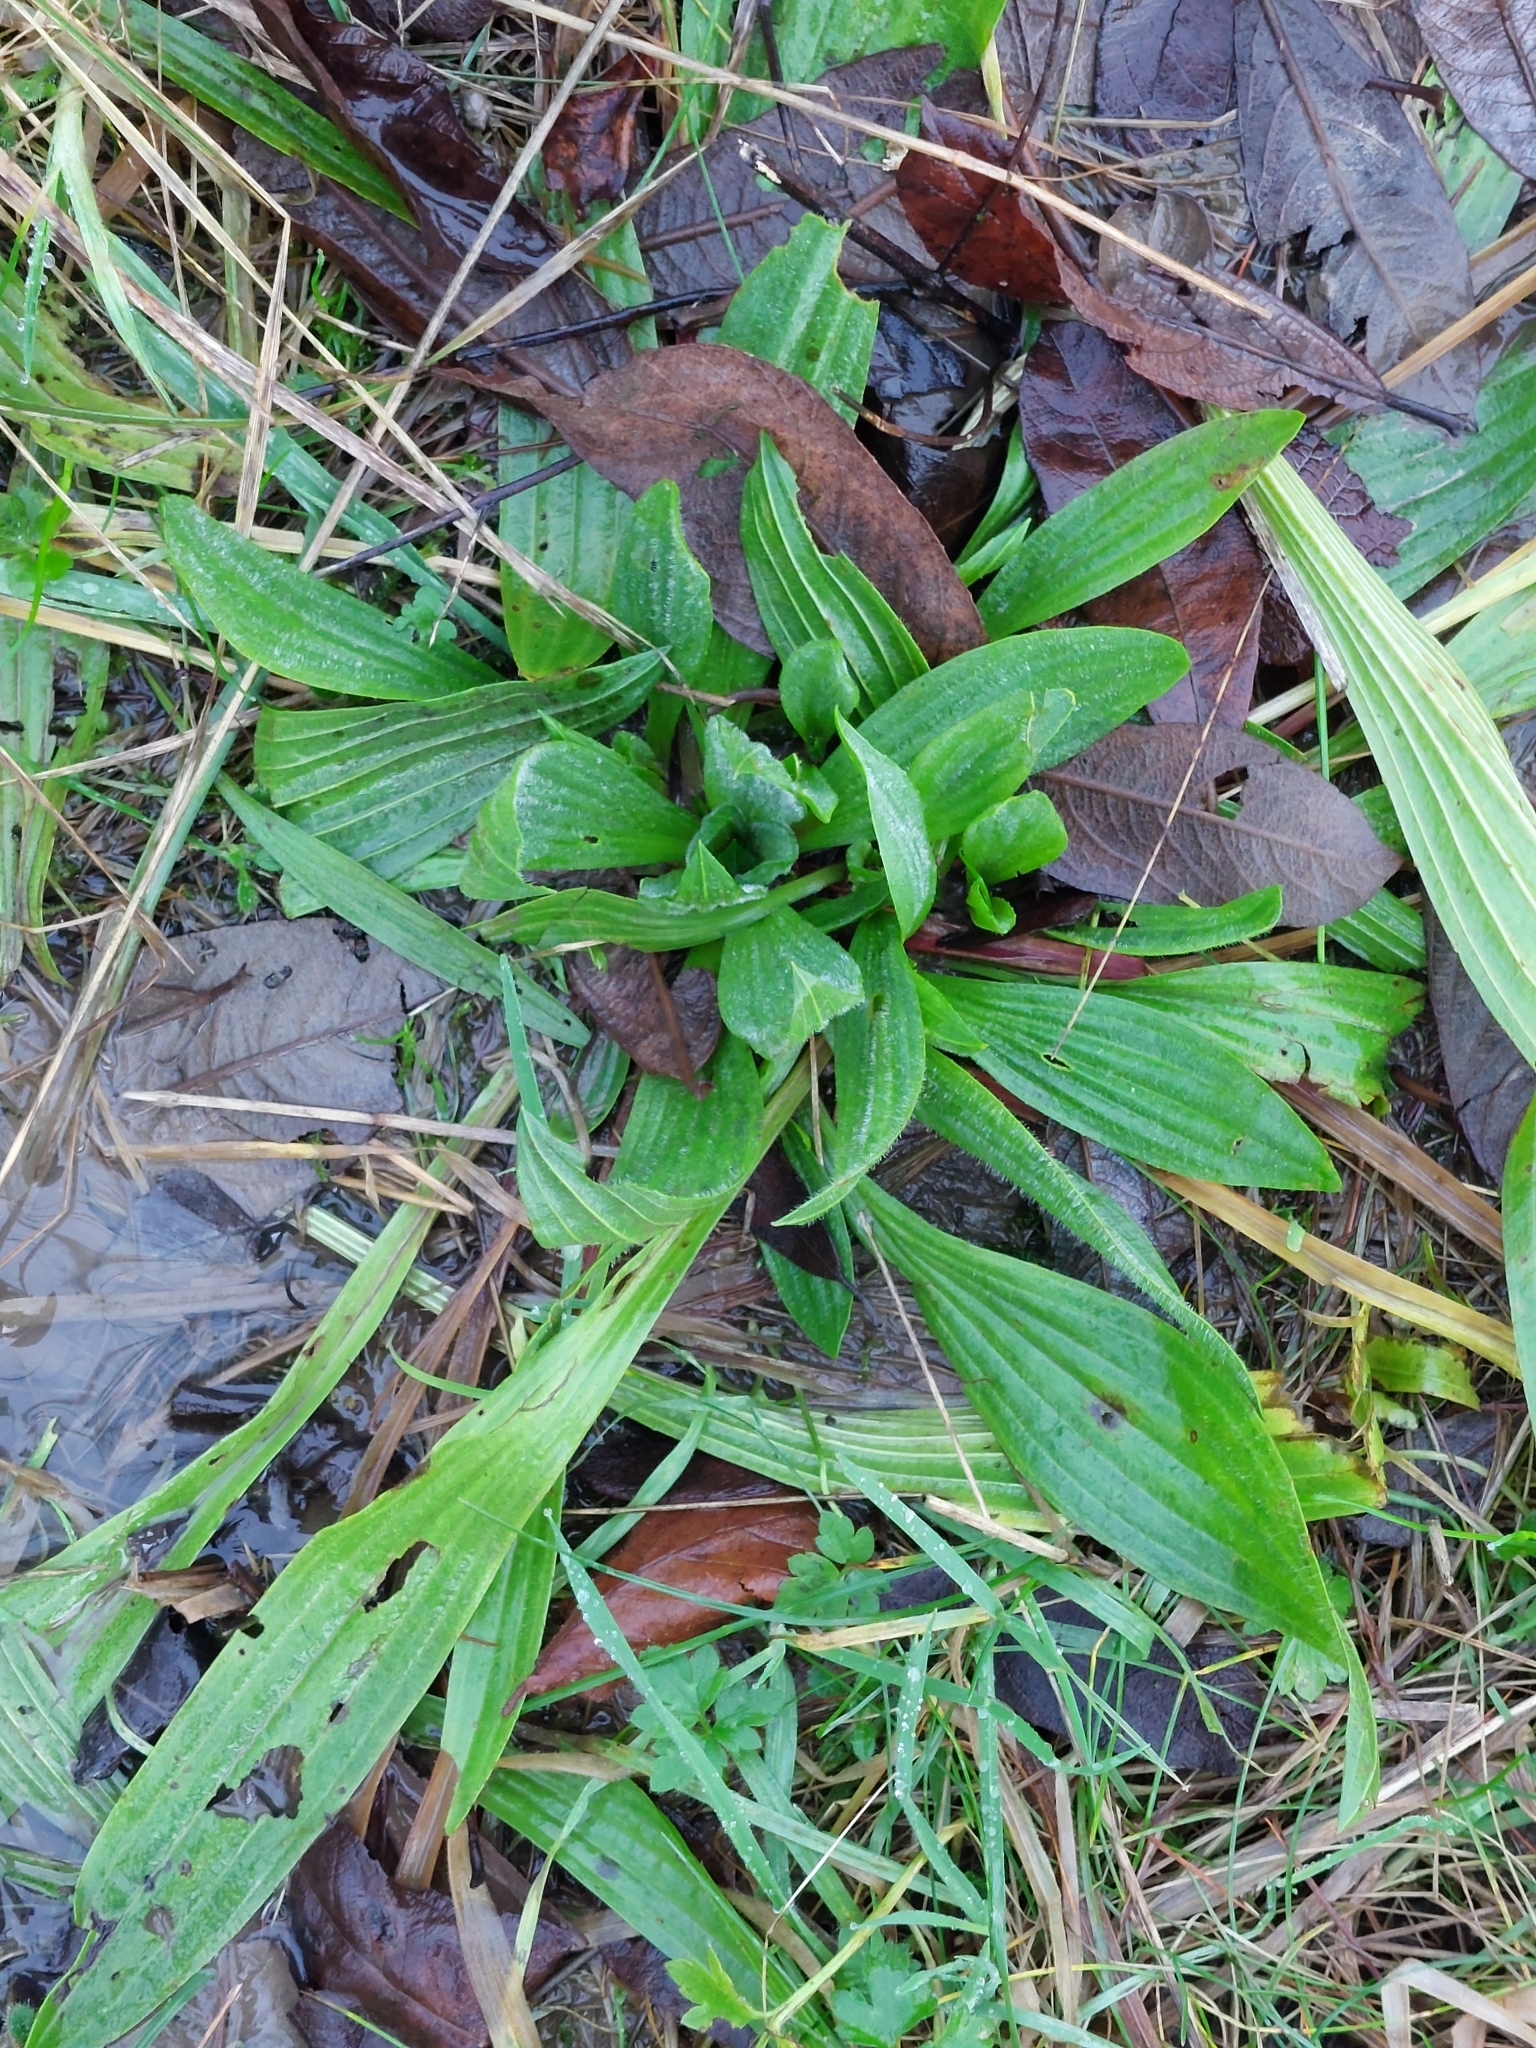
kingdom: Plantae
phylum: Tracheophyta
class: Magnoliopsida
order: Lamiales
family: Plantaginaceae
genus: Plantago
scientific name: Plantago lanceolata
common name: Ribwort plantain
